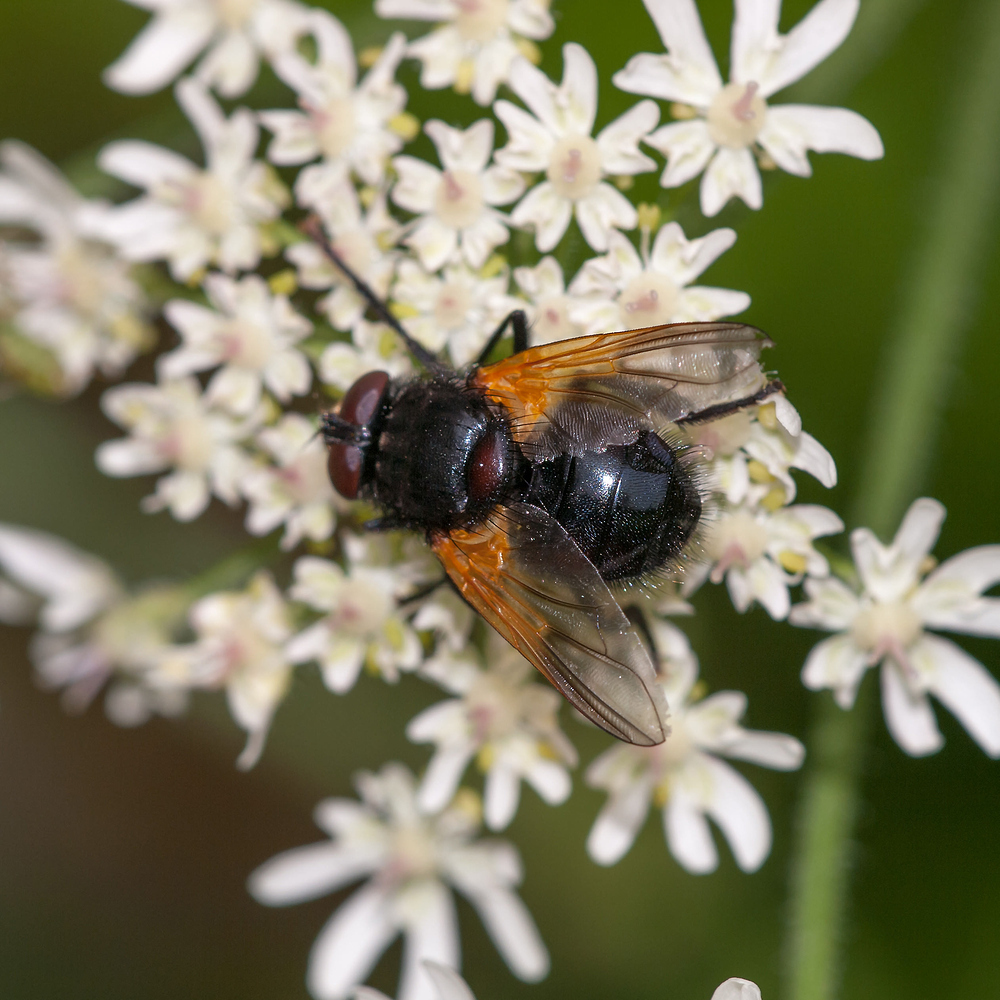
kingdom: Animalia
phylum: Arthropoda
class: Insecta
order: Diptera
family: Muscidae
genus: Mesembrina
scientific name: Mesembrina meridiana
